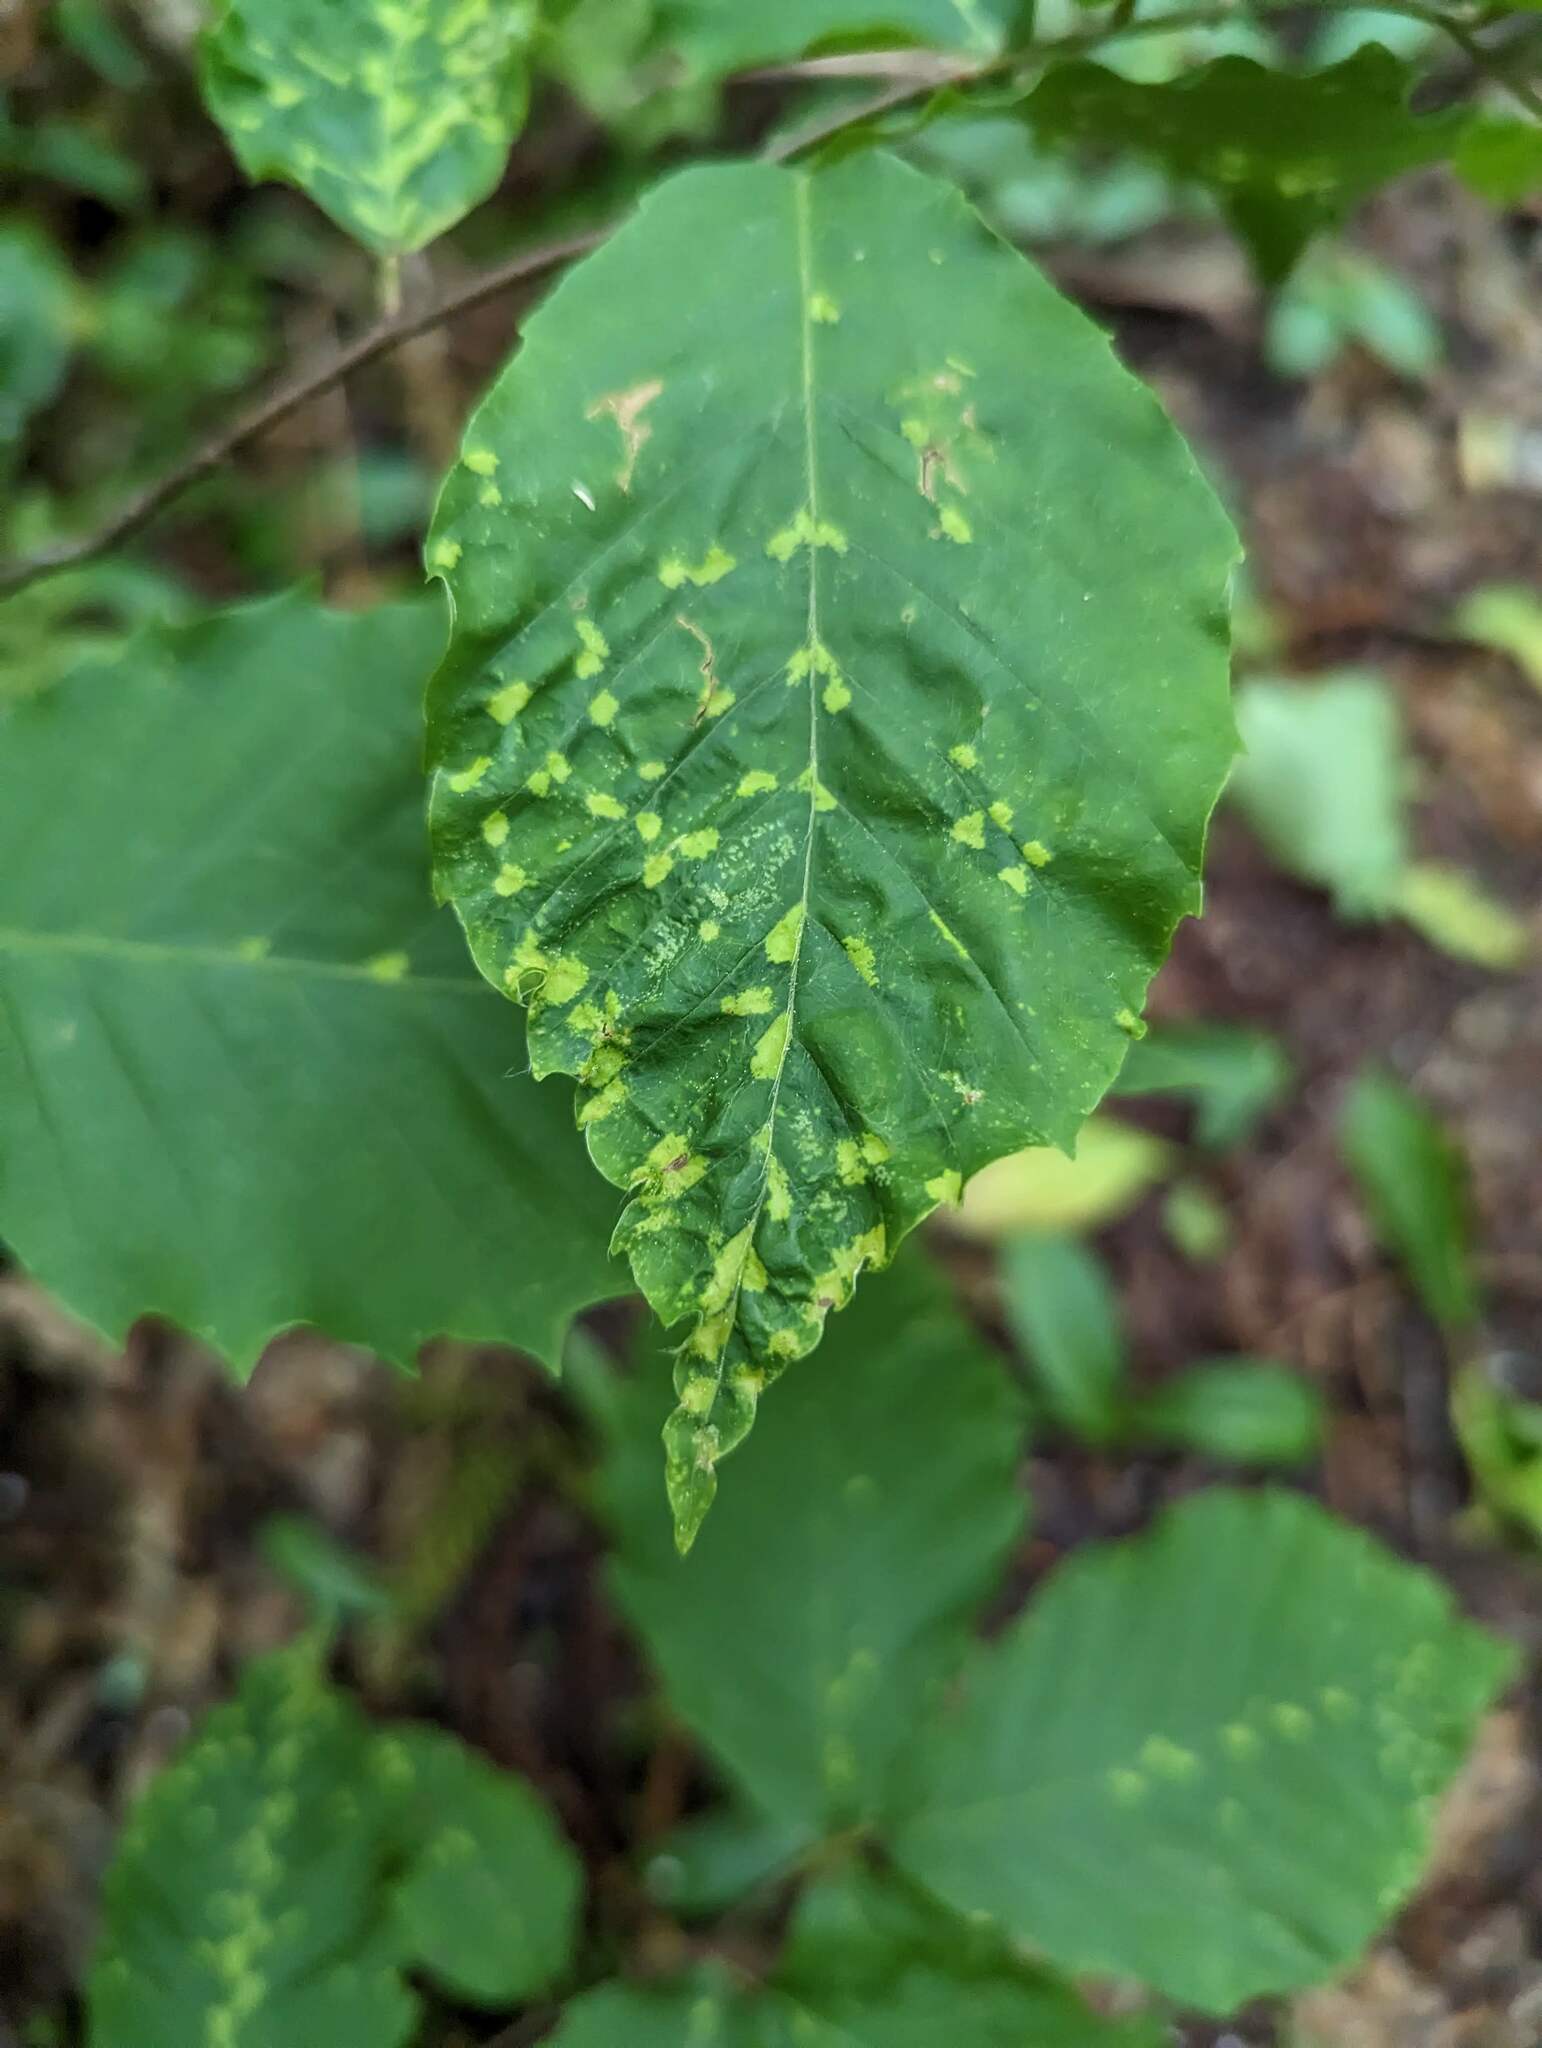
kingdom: Animalia
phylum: Arthropoda
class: Arachnida
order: Trombidiformes
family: Eriophyidae
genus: Acalitus
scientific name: Acalitus
